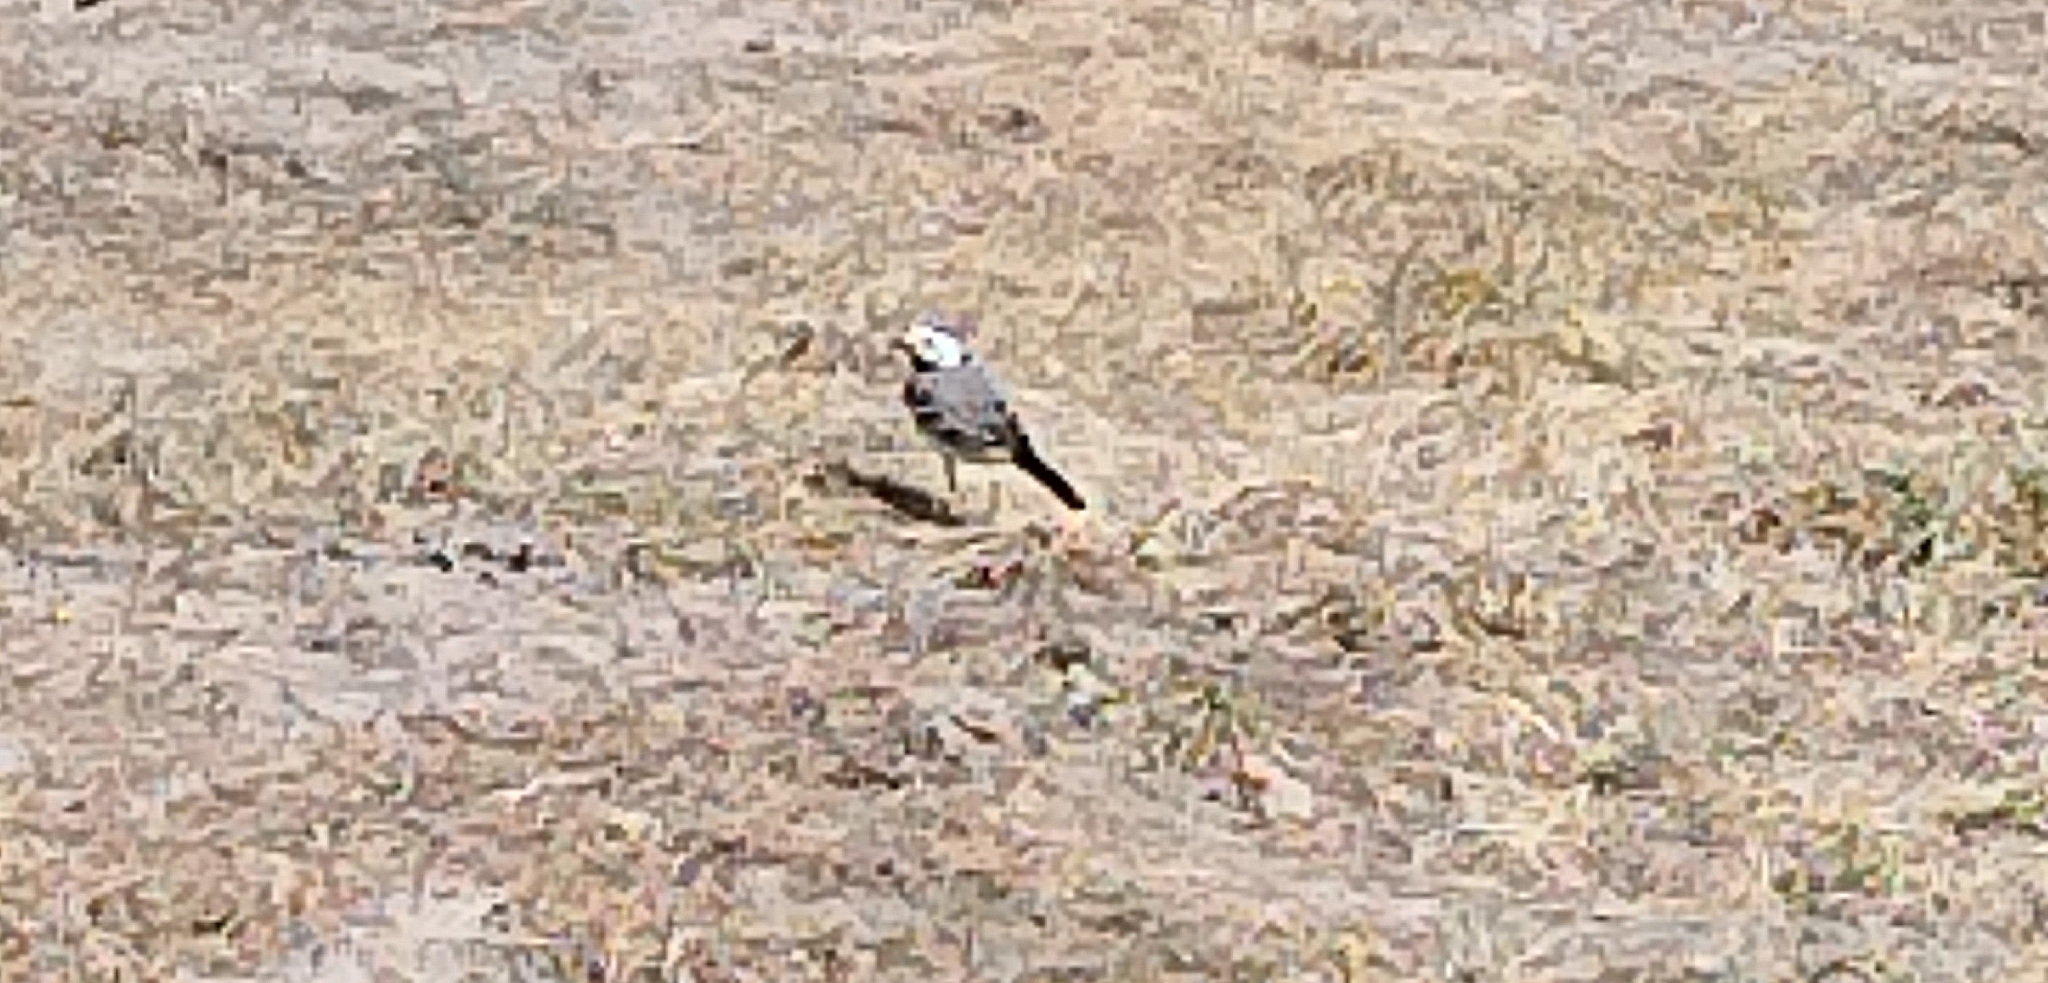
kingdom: Animalia
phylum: Chordata
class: Aves
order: Passeriformes
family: Motacillidae
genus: Motacilla
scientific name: Motacilla alba
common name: White wagtail
